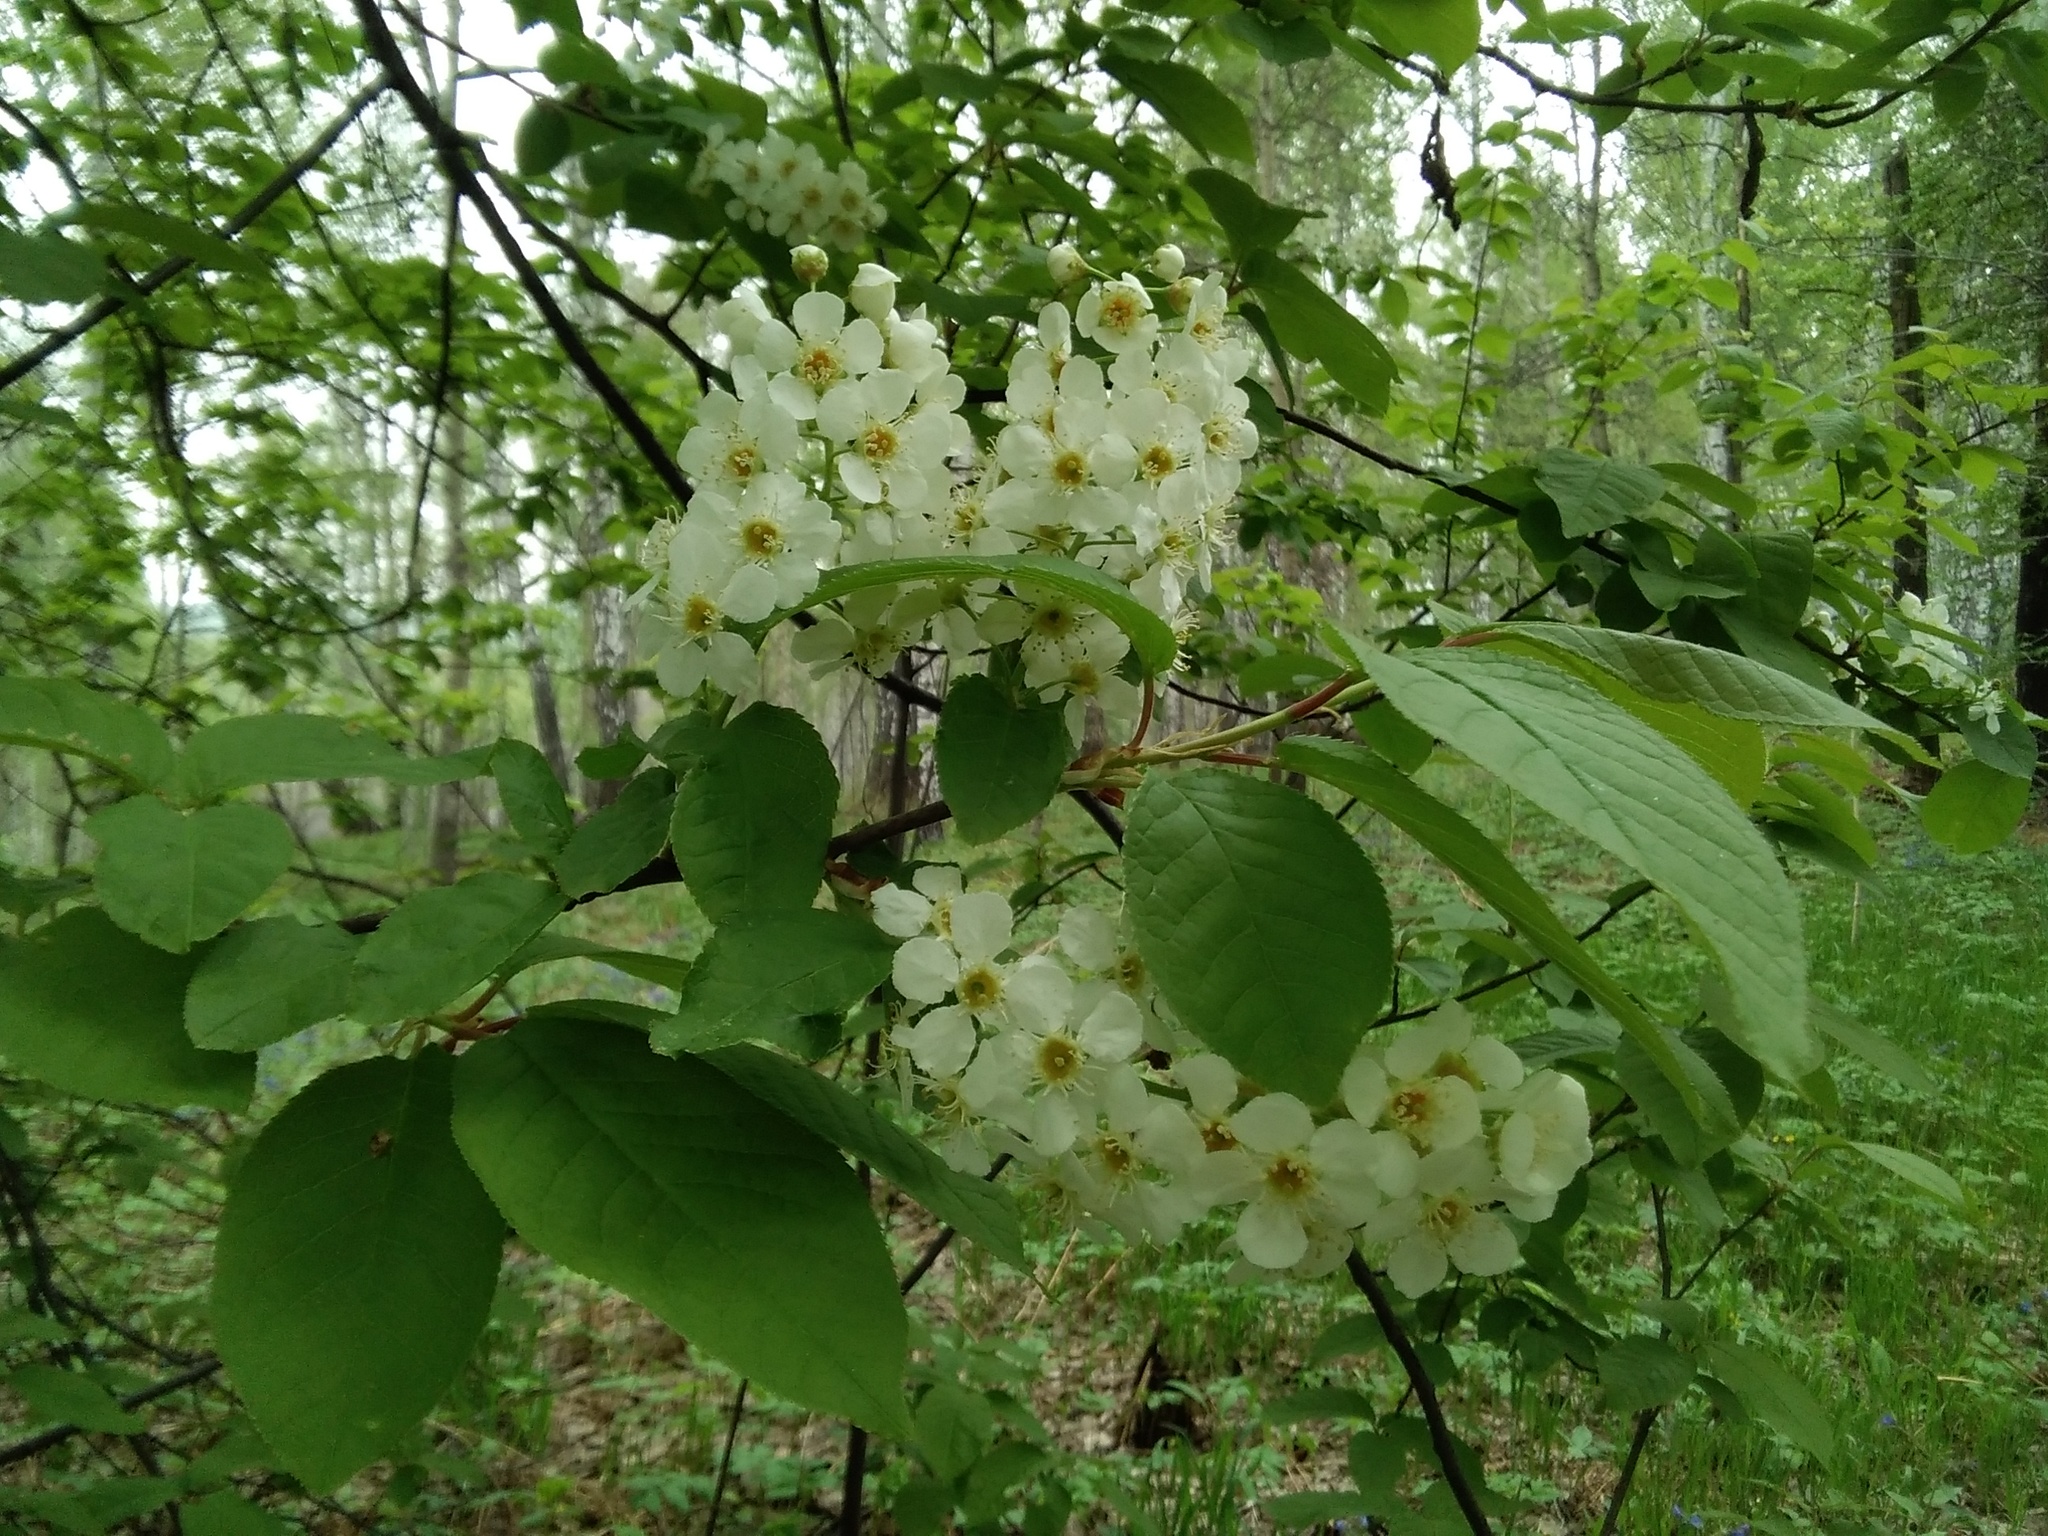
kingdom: Plantae
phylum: Tracheophyta
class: Magnoliopsida
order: Rosales
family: Rosaceae
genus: Prunus
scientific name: Prunus padus
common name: Bird cherry
